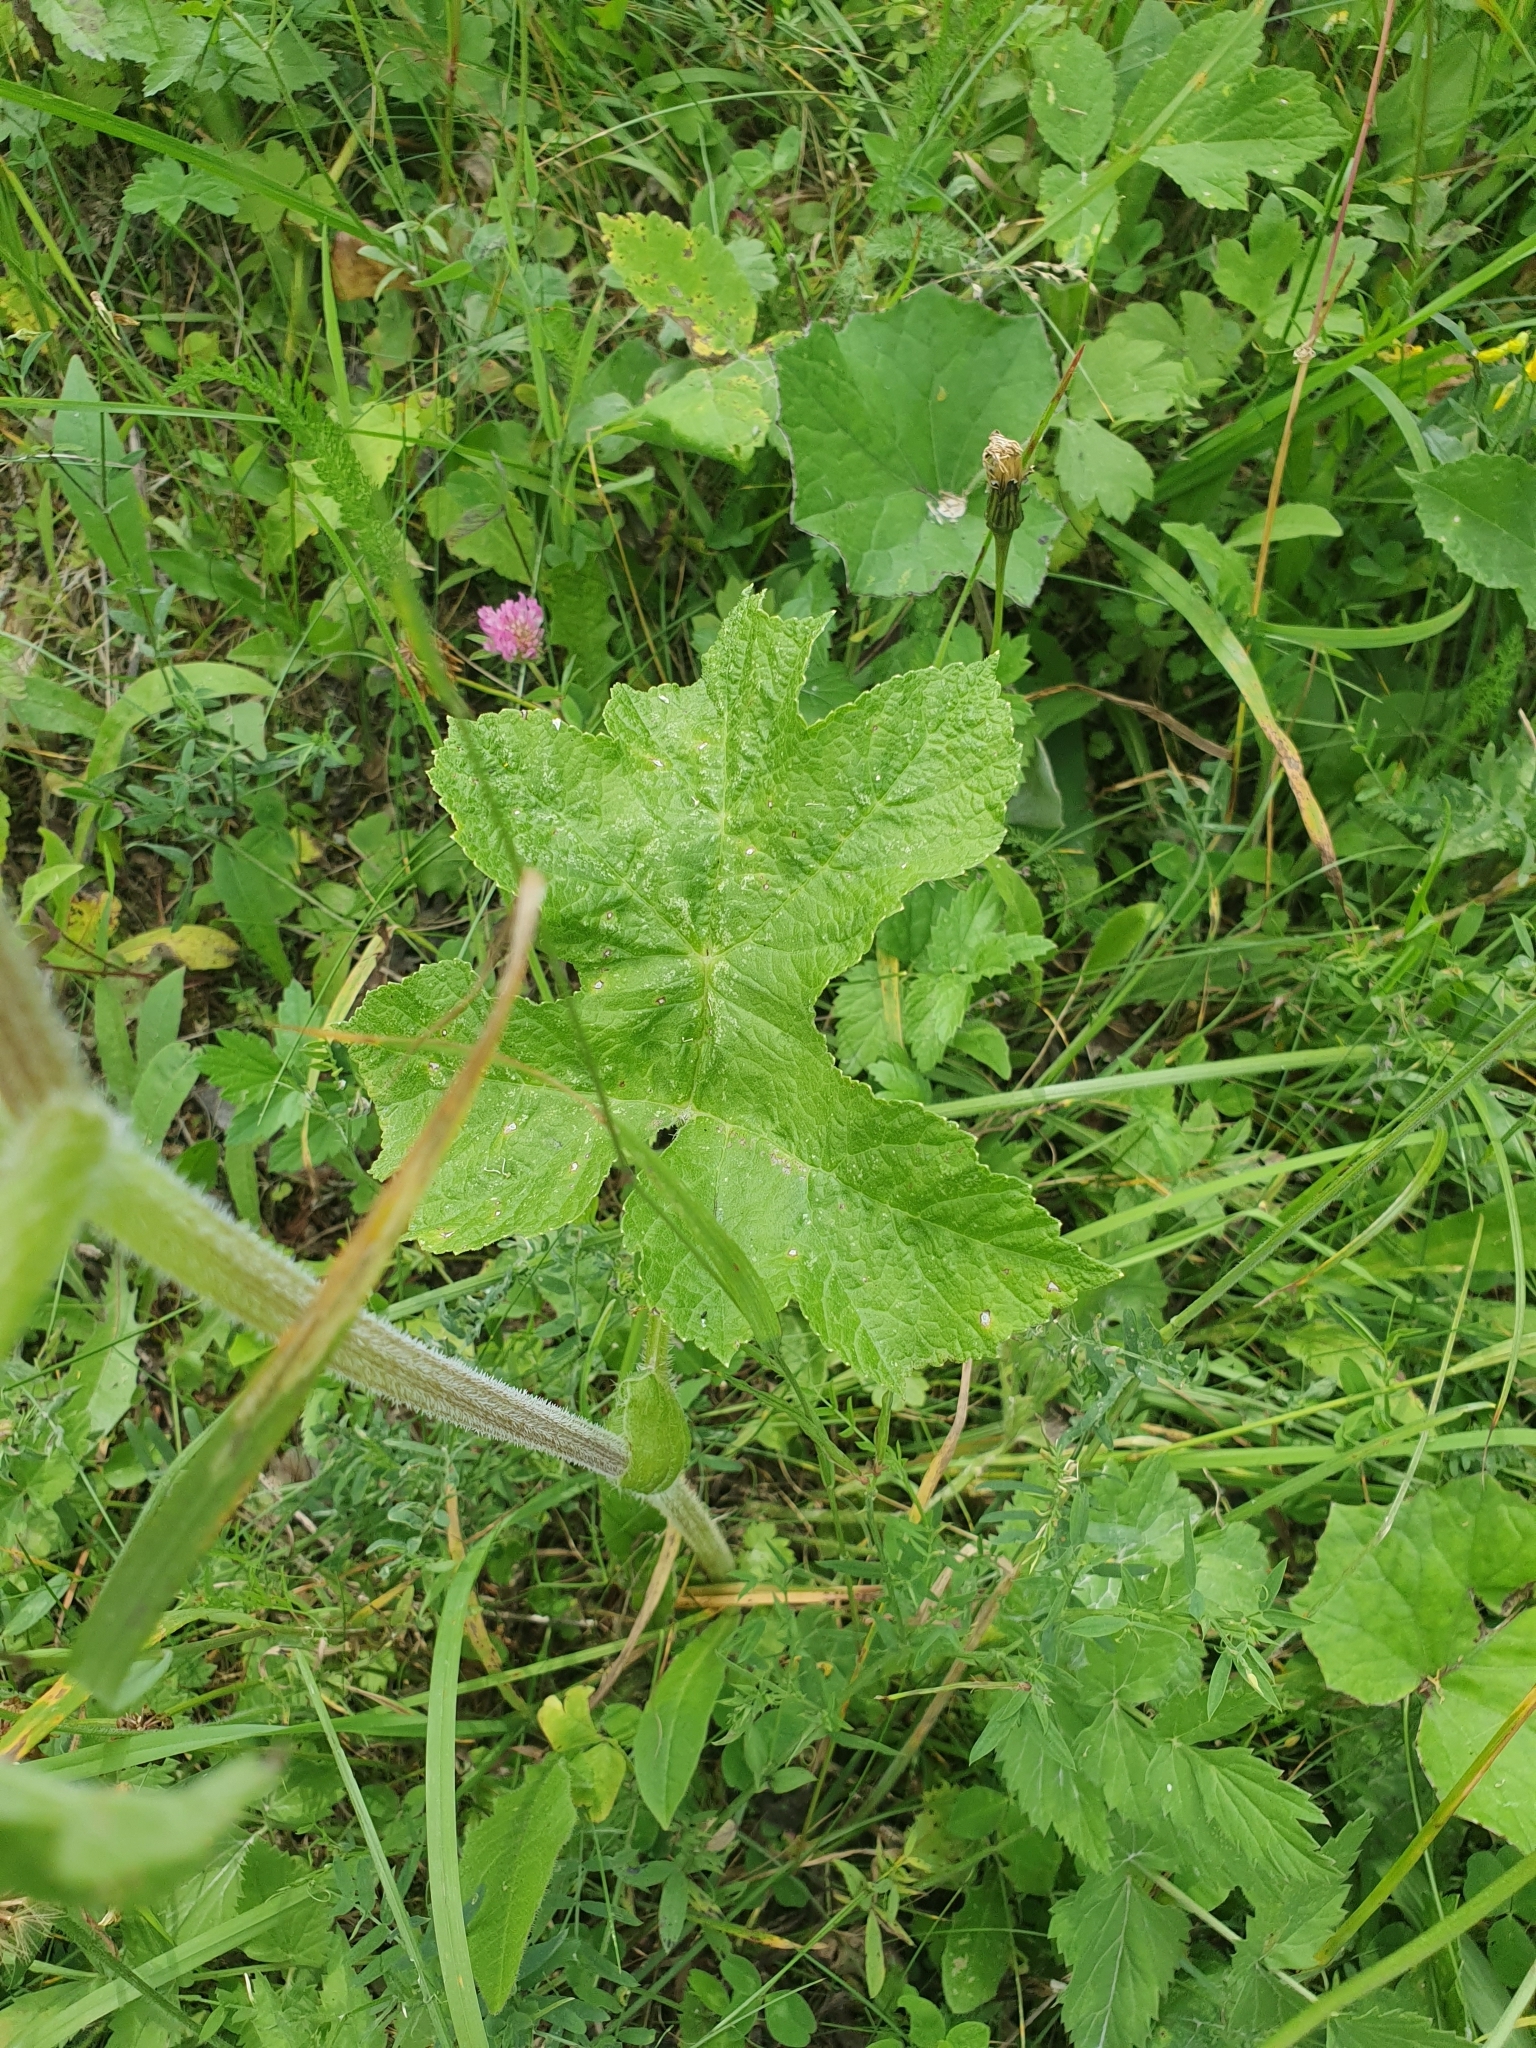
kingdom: Plantae
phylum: Tracheophyta
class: Magnoliopsida
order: Apiales
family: Apiaceae
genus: Heracleum
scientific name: Heracleum sphondylium
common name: Hogweed
